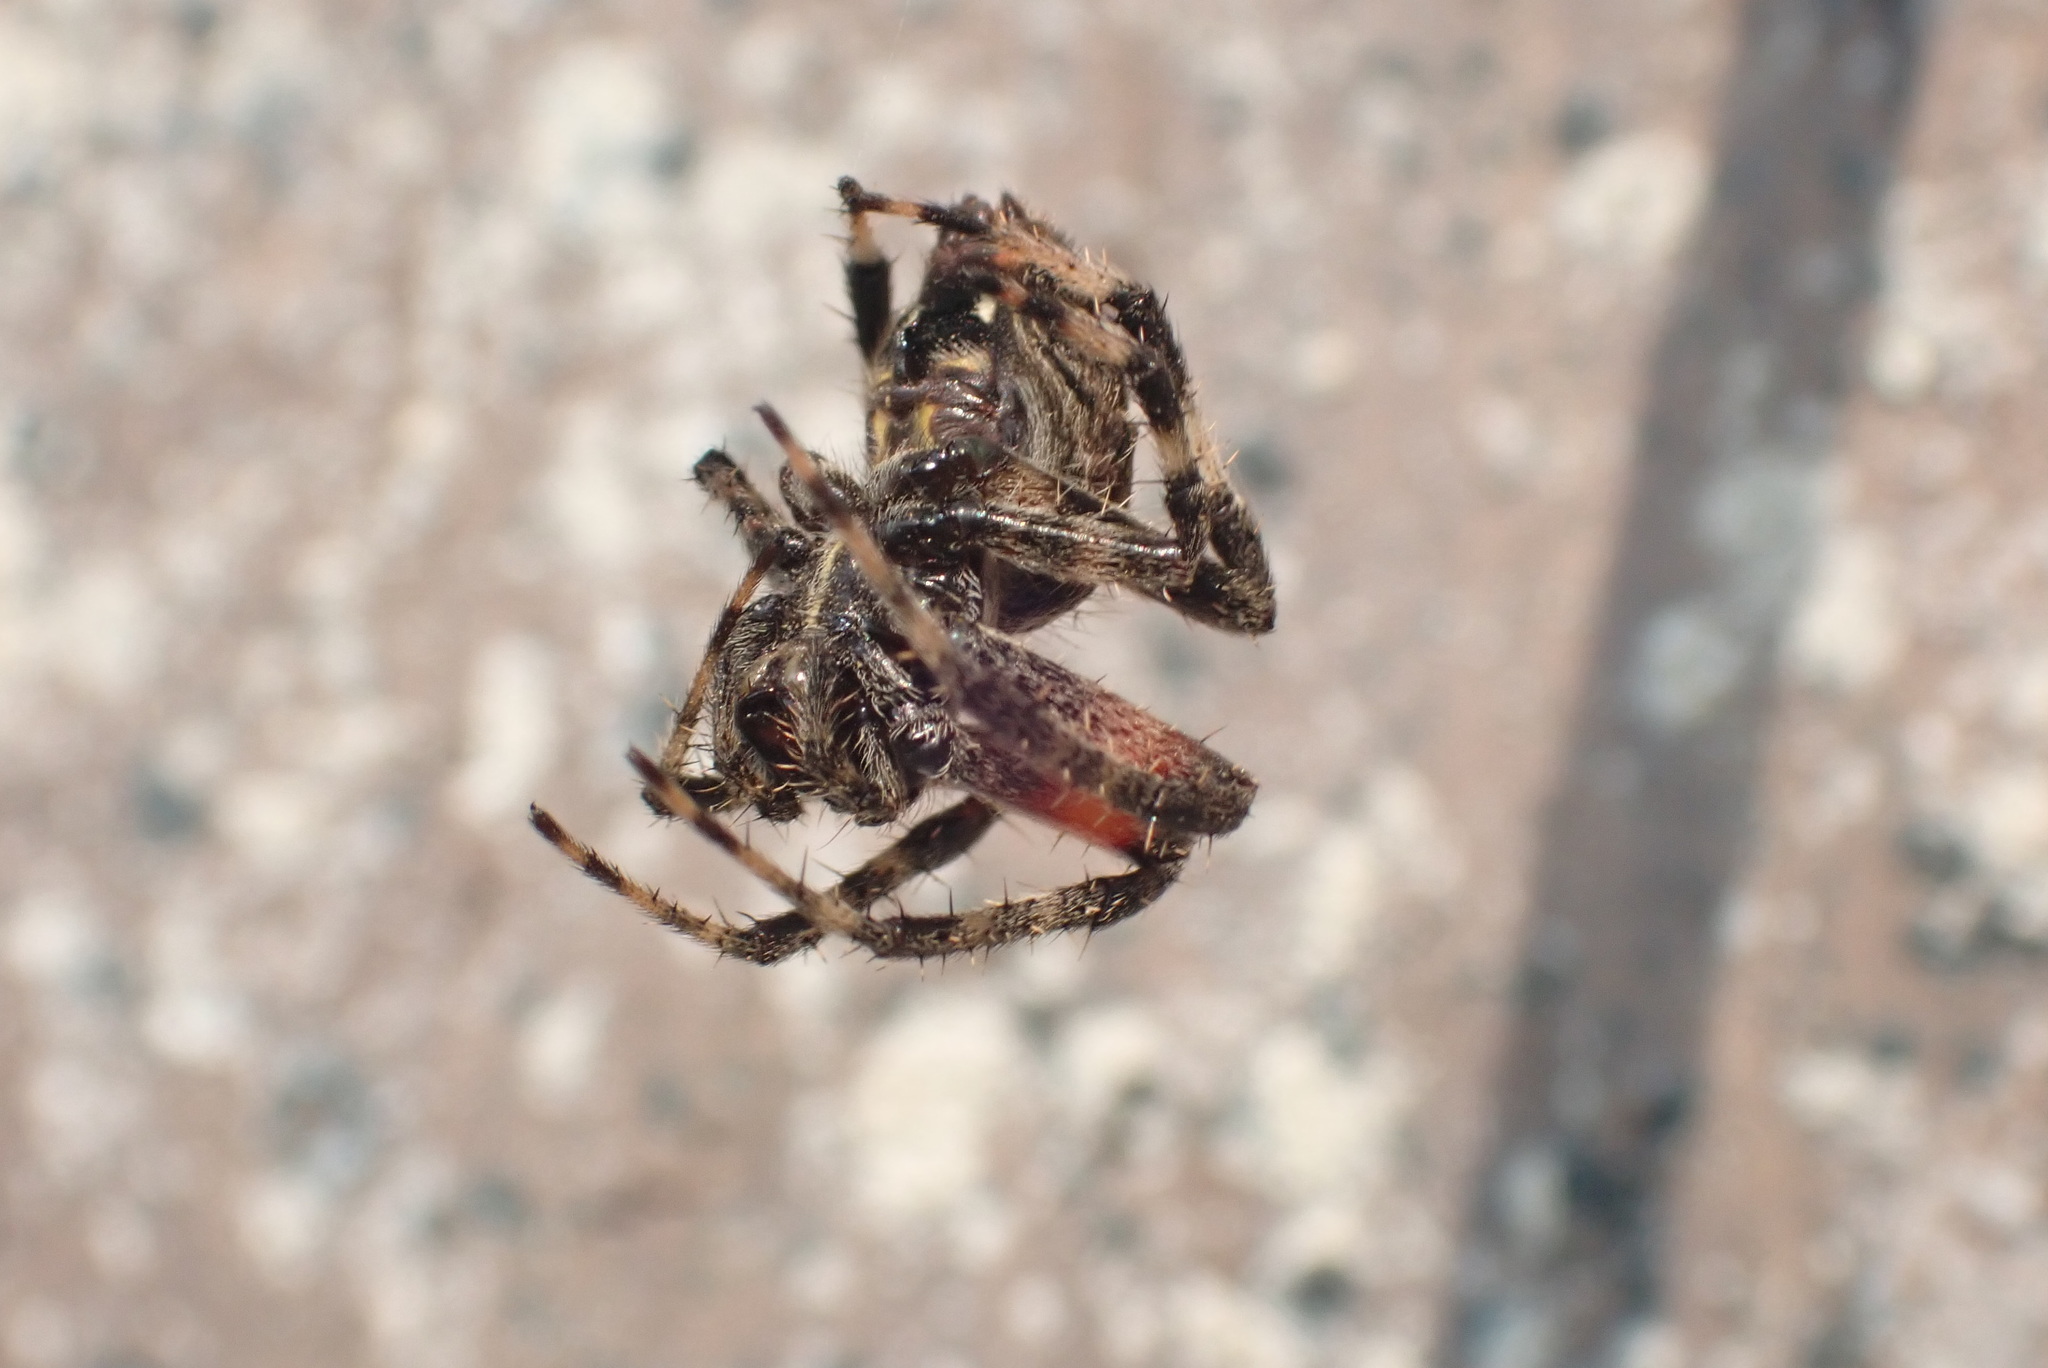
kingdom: Animalia
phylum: Arthropoda
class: Arachnida
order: Araneae
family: Araneidae
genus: Neoscona
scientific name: Neoscona crucifera
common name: Spotted orbweaver
